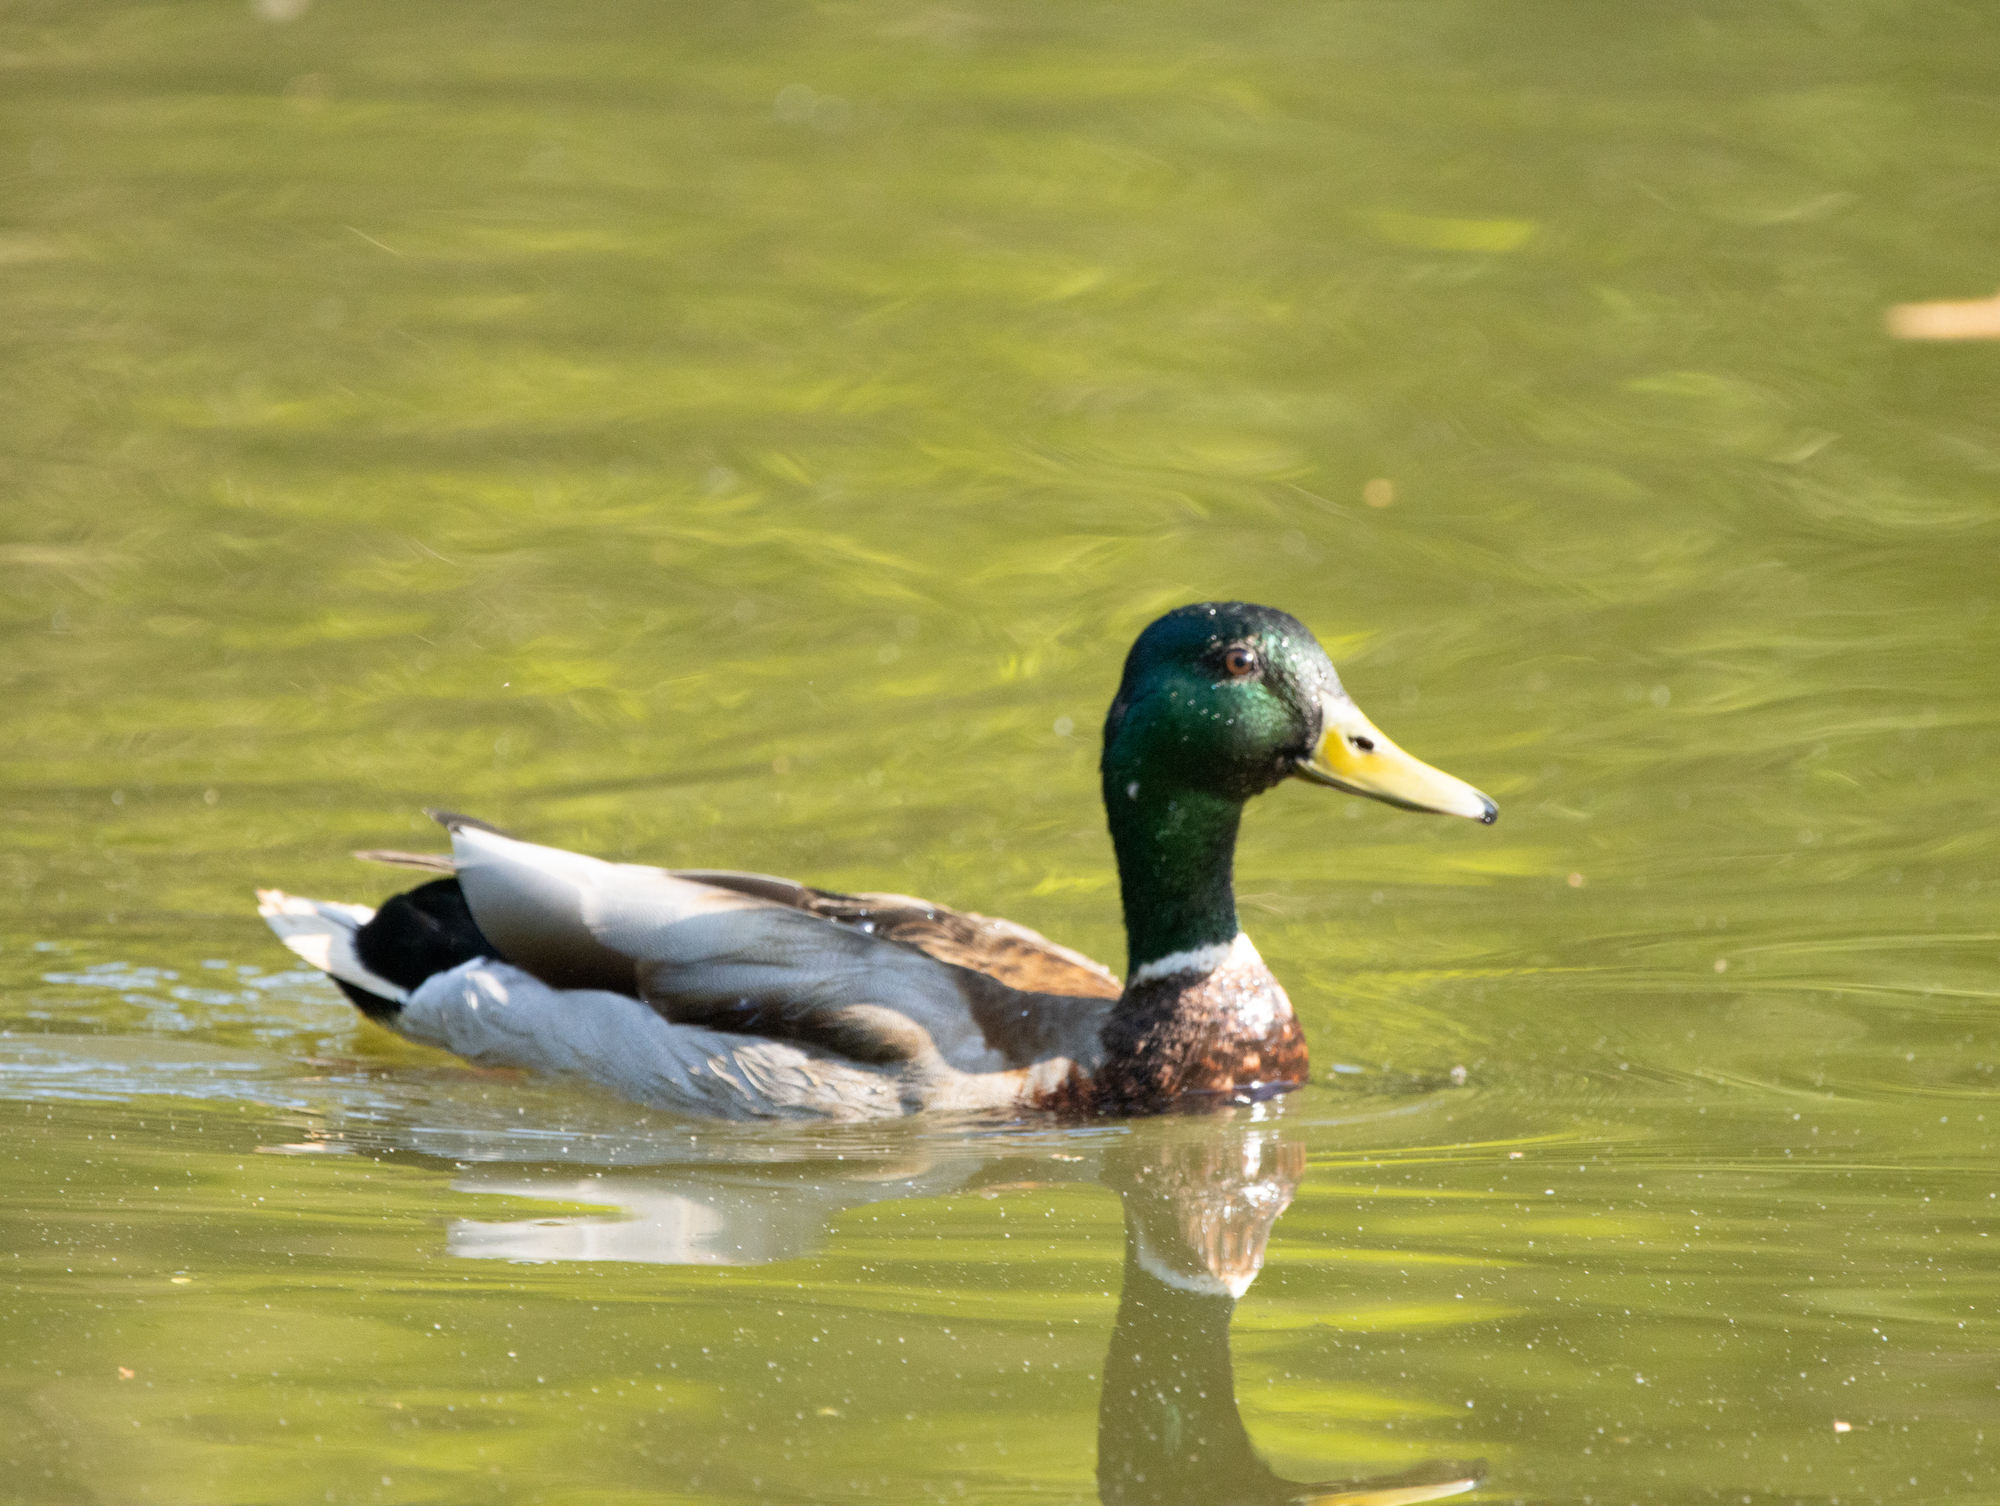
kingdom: Animalia
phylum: Chordata
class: Aves
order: Anseriformes
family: Anatidae
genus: Anas
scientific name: Anas platyrhynchos
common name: Mallard
